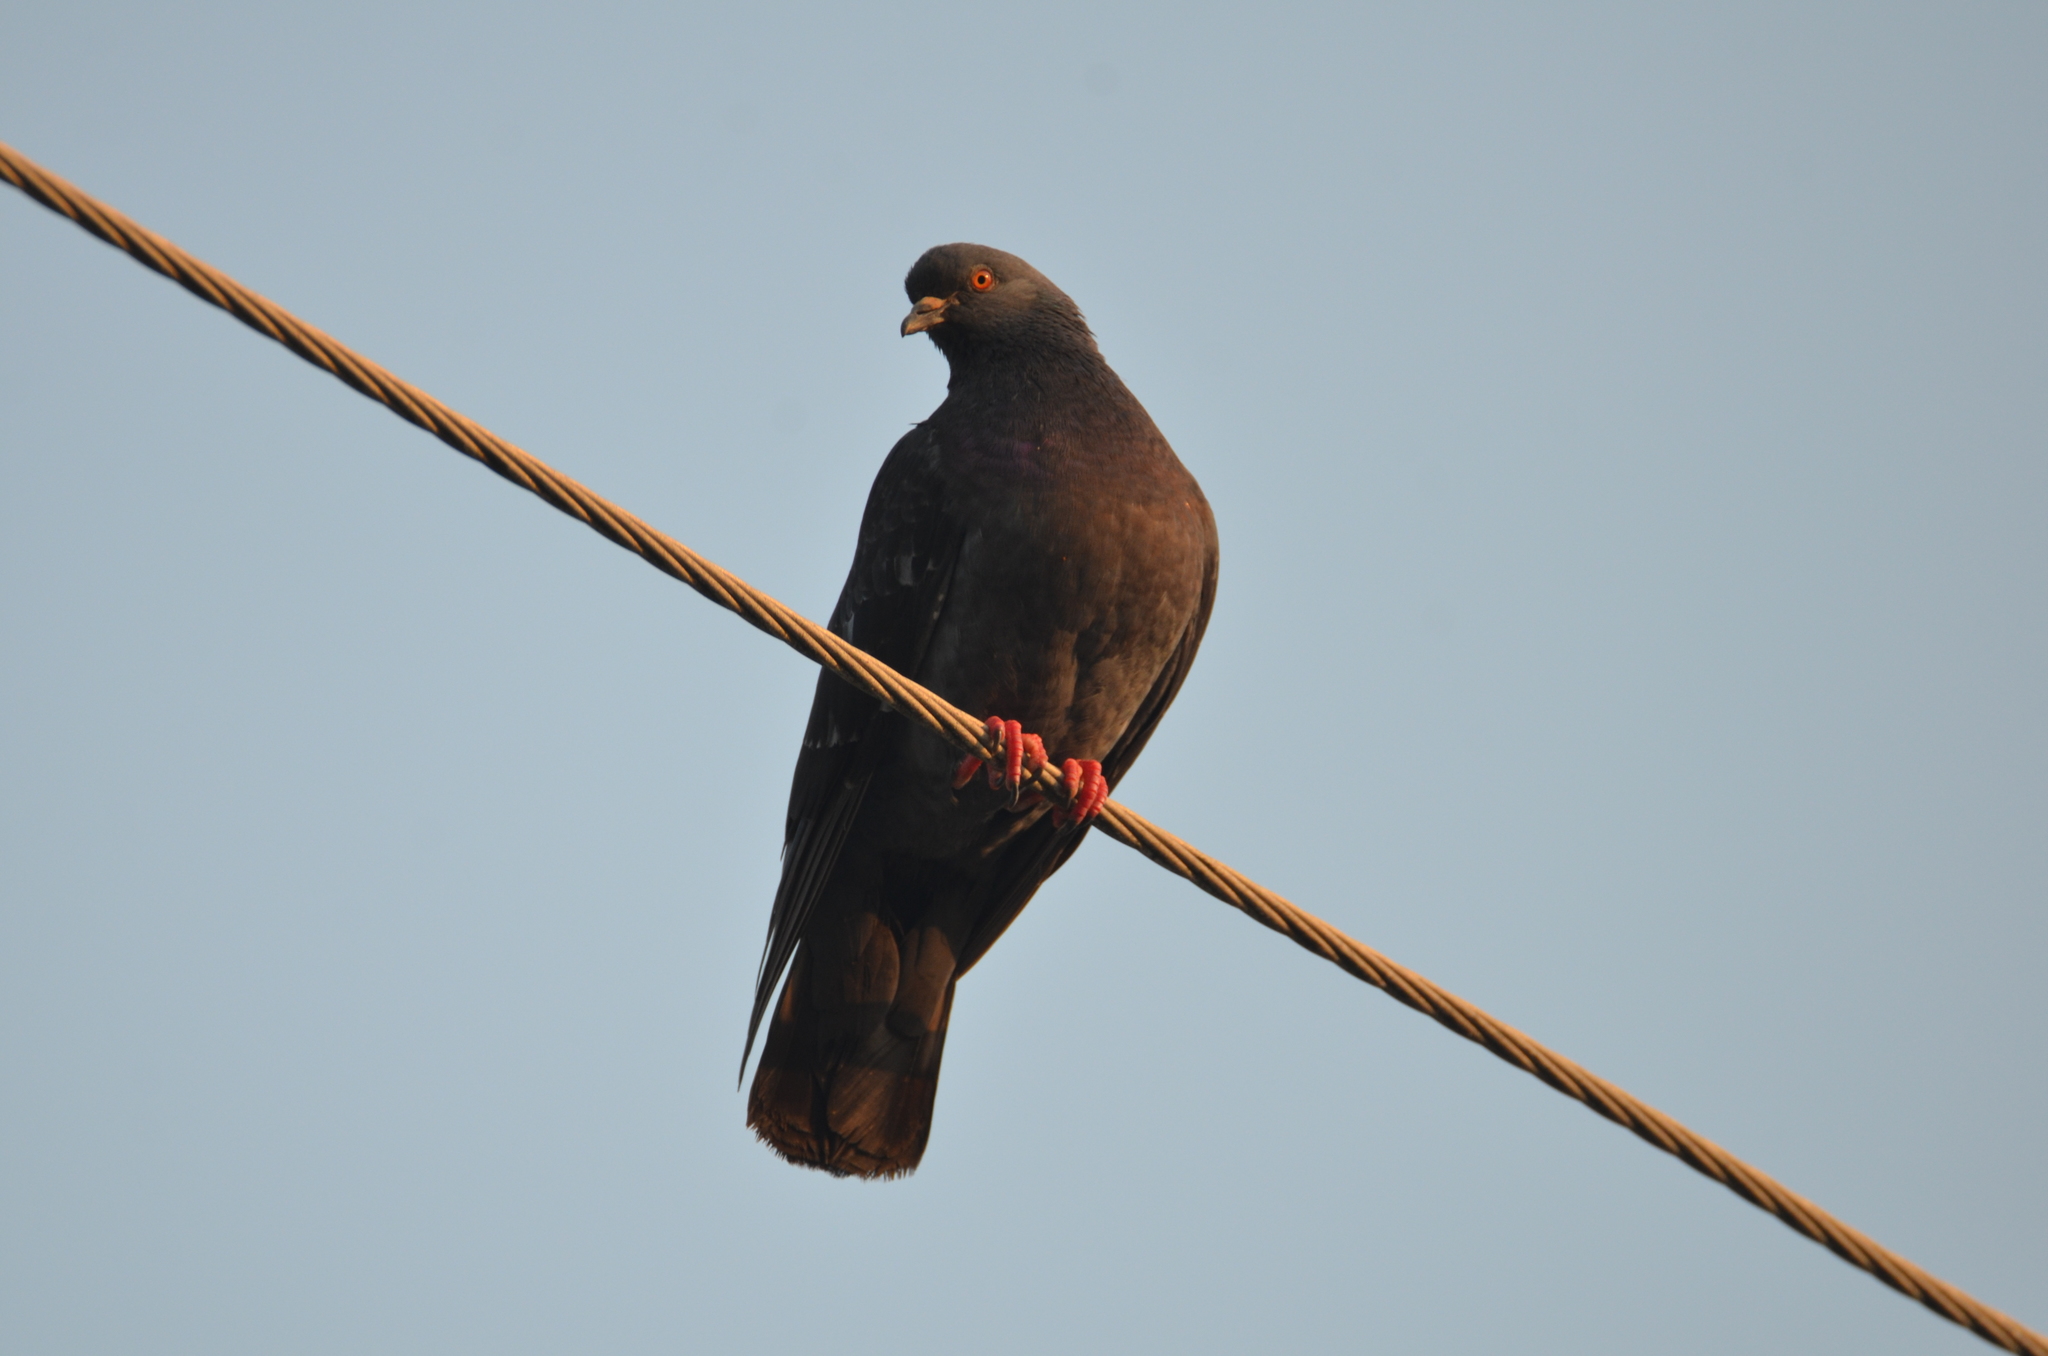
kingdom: Animalia
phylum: Chordata
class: Aves
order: Columbiformes
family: Columbidae
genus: Columba
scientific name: Columba livia
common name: Rock pigeon
